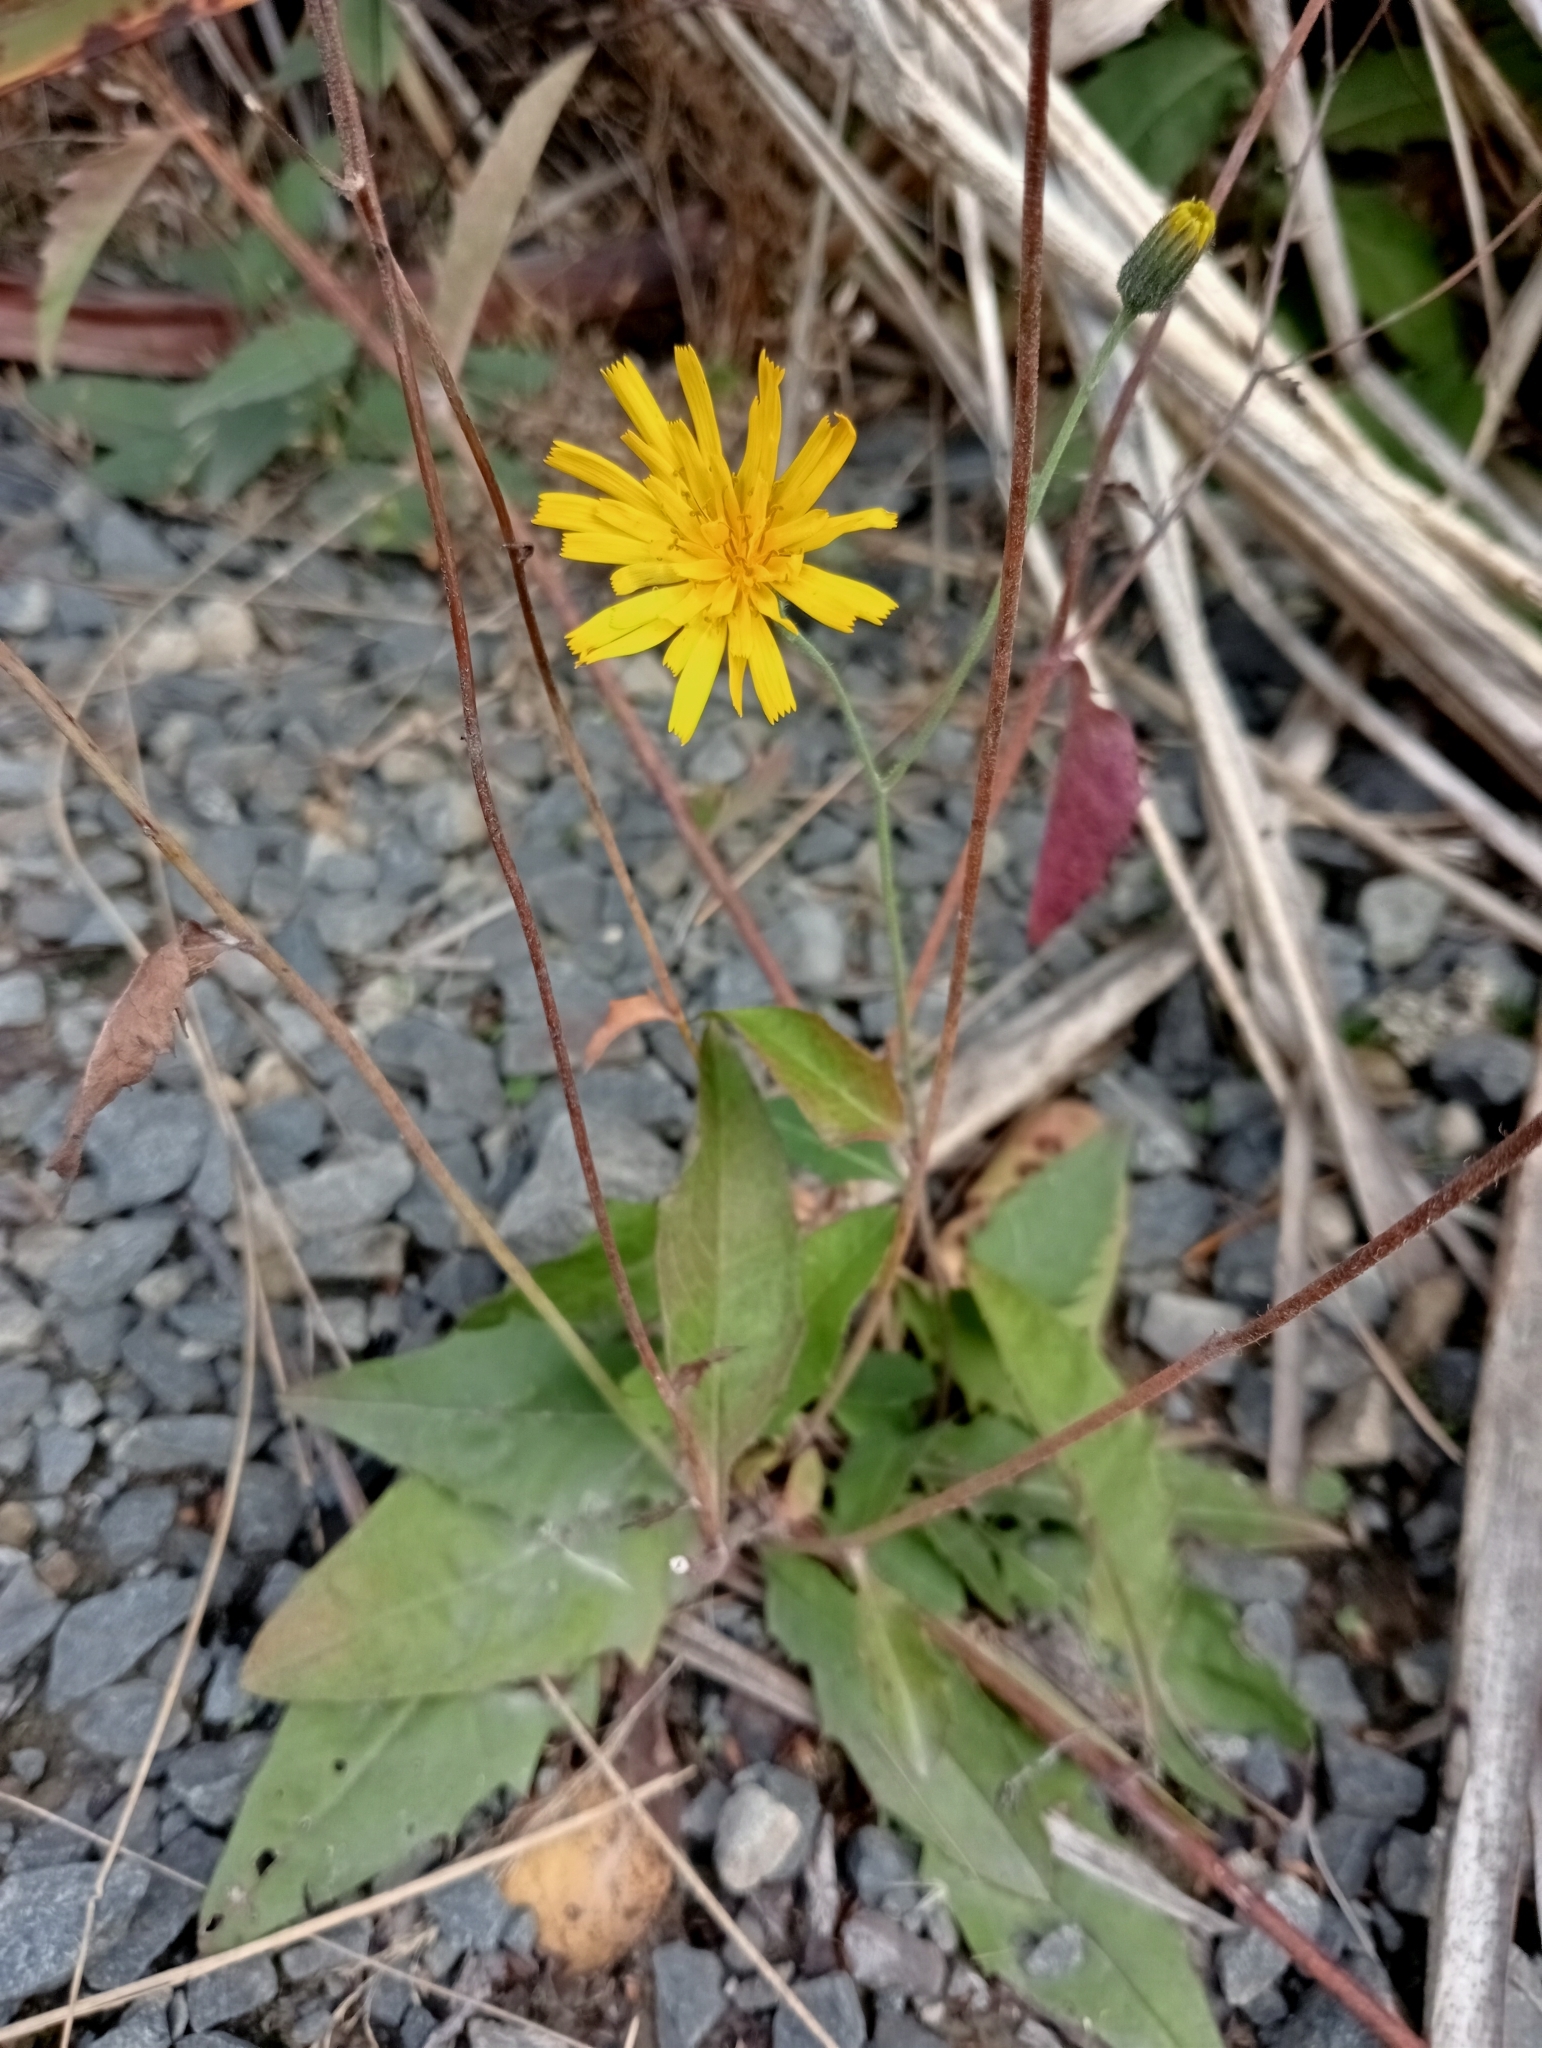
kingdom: Plantae
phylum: Tracheophyta
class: Magnoliopsida
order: Asterales
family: Asteraceae
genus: Hieracium
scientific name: Hieracium lepidulum
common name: Irregular-toothed hawkweed
